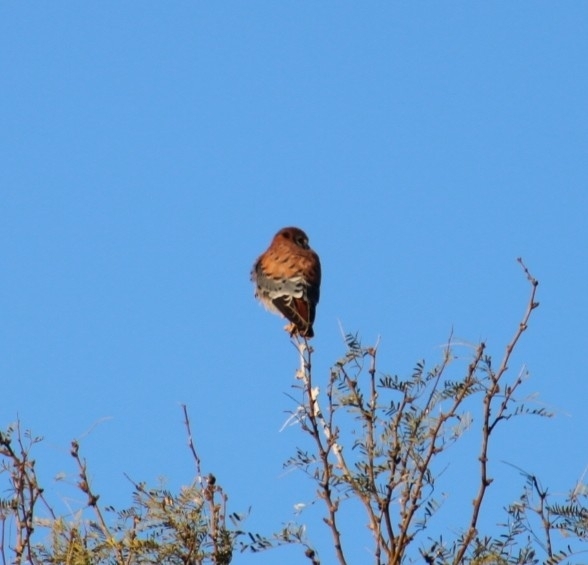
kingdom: Animalia
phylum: Chordata
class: Aves
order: Falconiformes
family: Falconidae
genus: Falco
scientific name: Falco sparverius
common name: American kestrel
